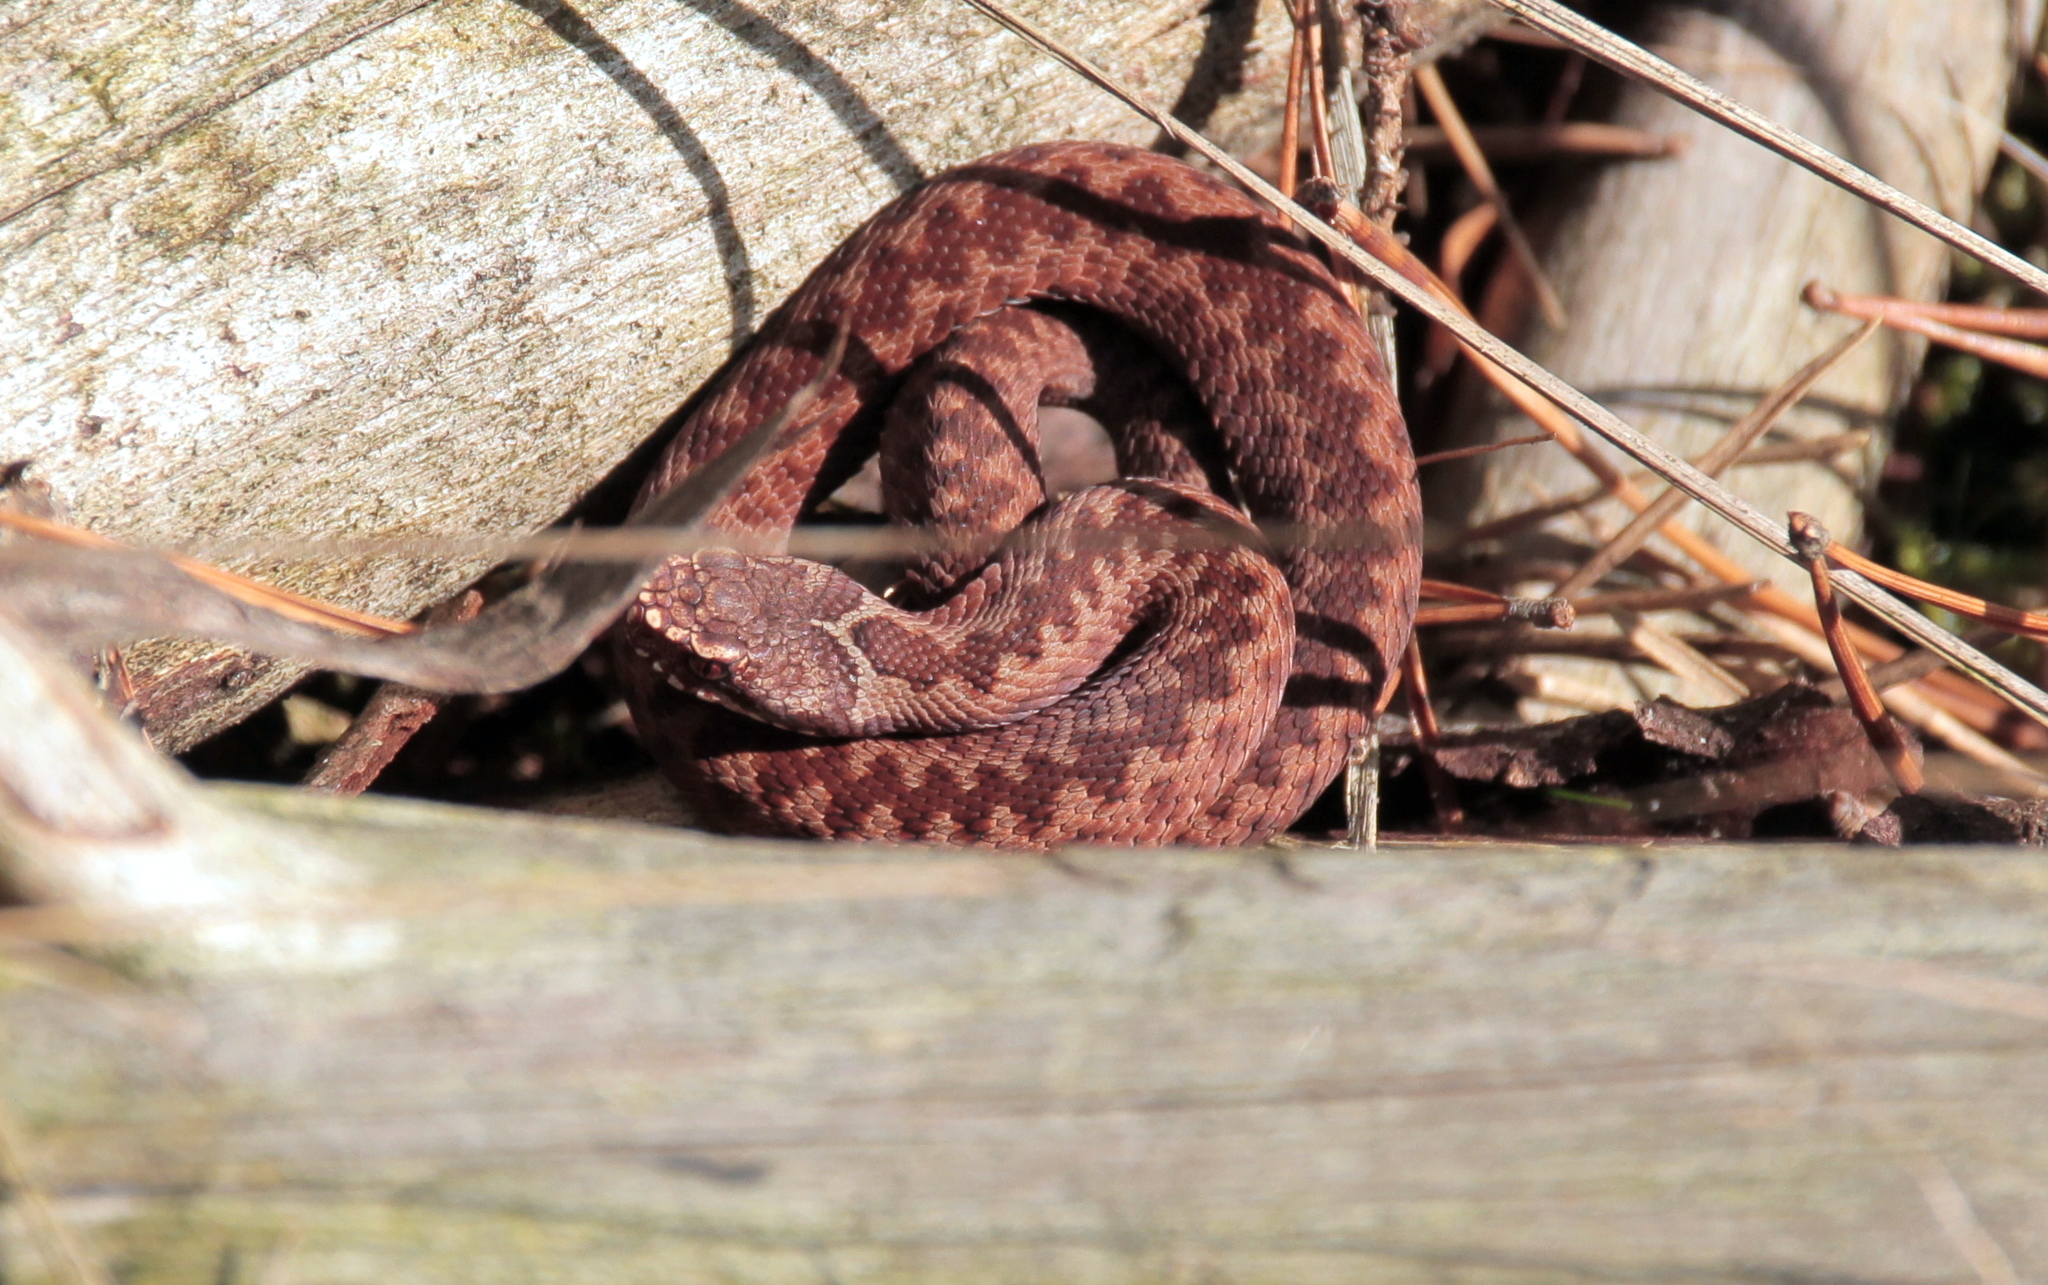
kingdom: Animalia
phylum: Chordata
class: Squamata
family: Viperidae
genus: Vipera
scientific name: Vipera berus
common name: Adder
